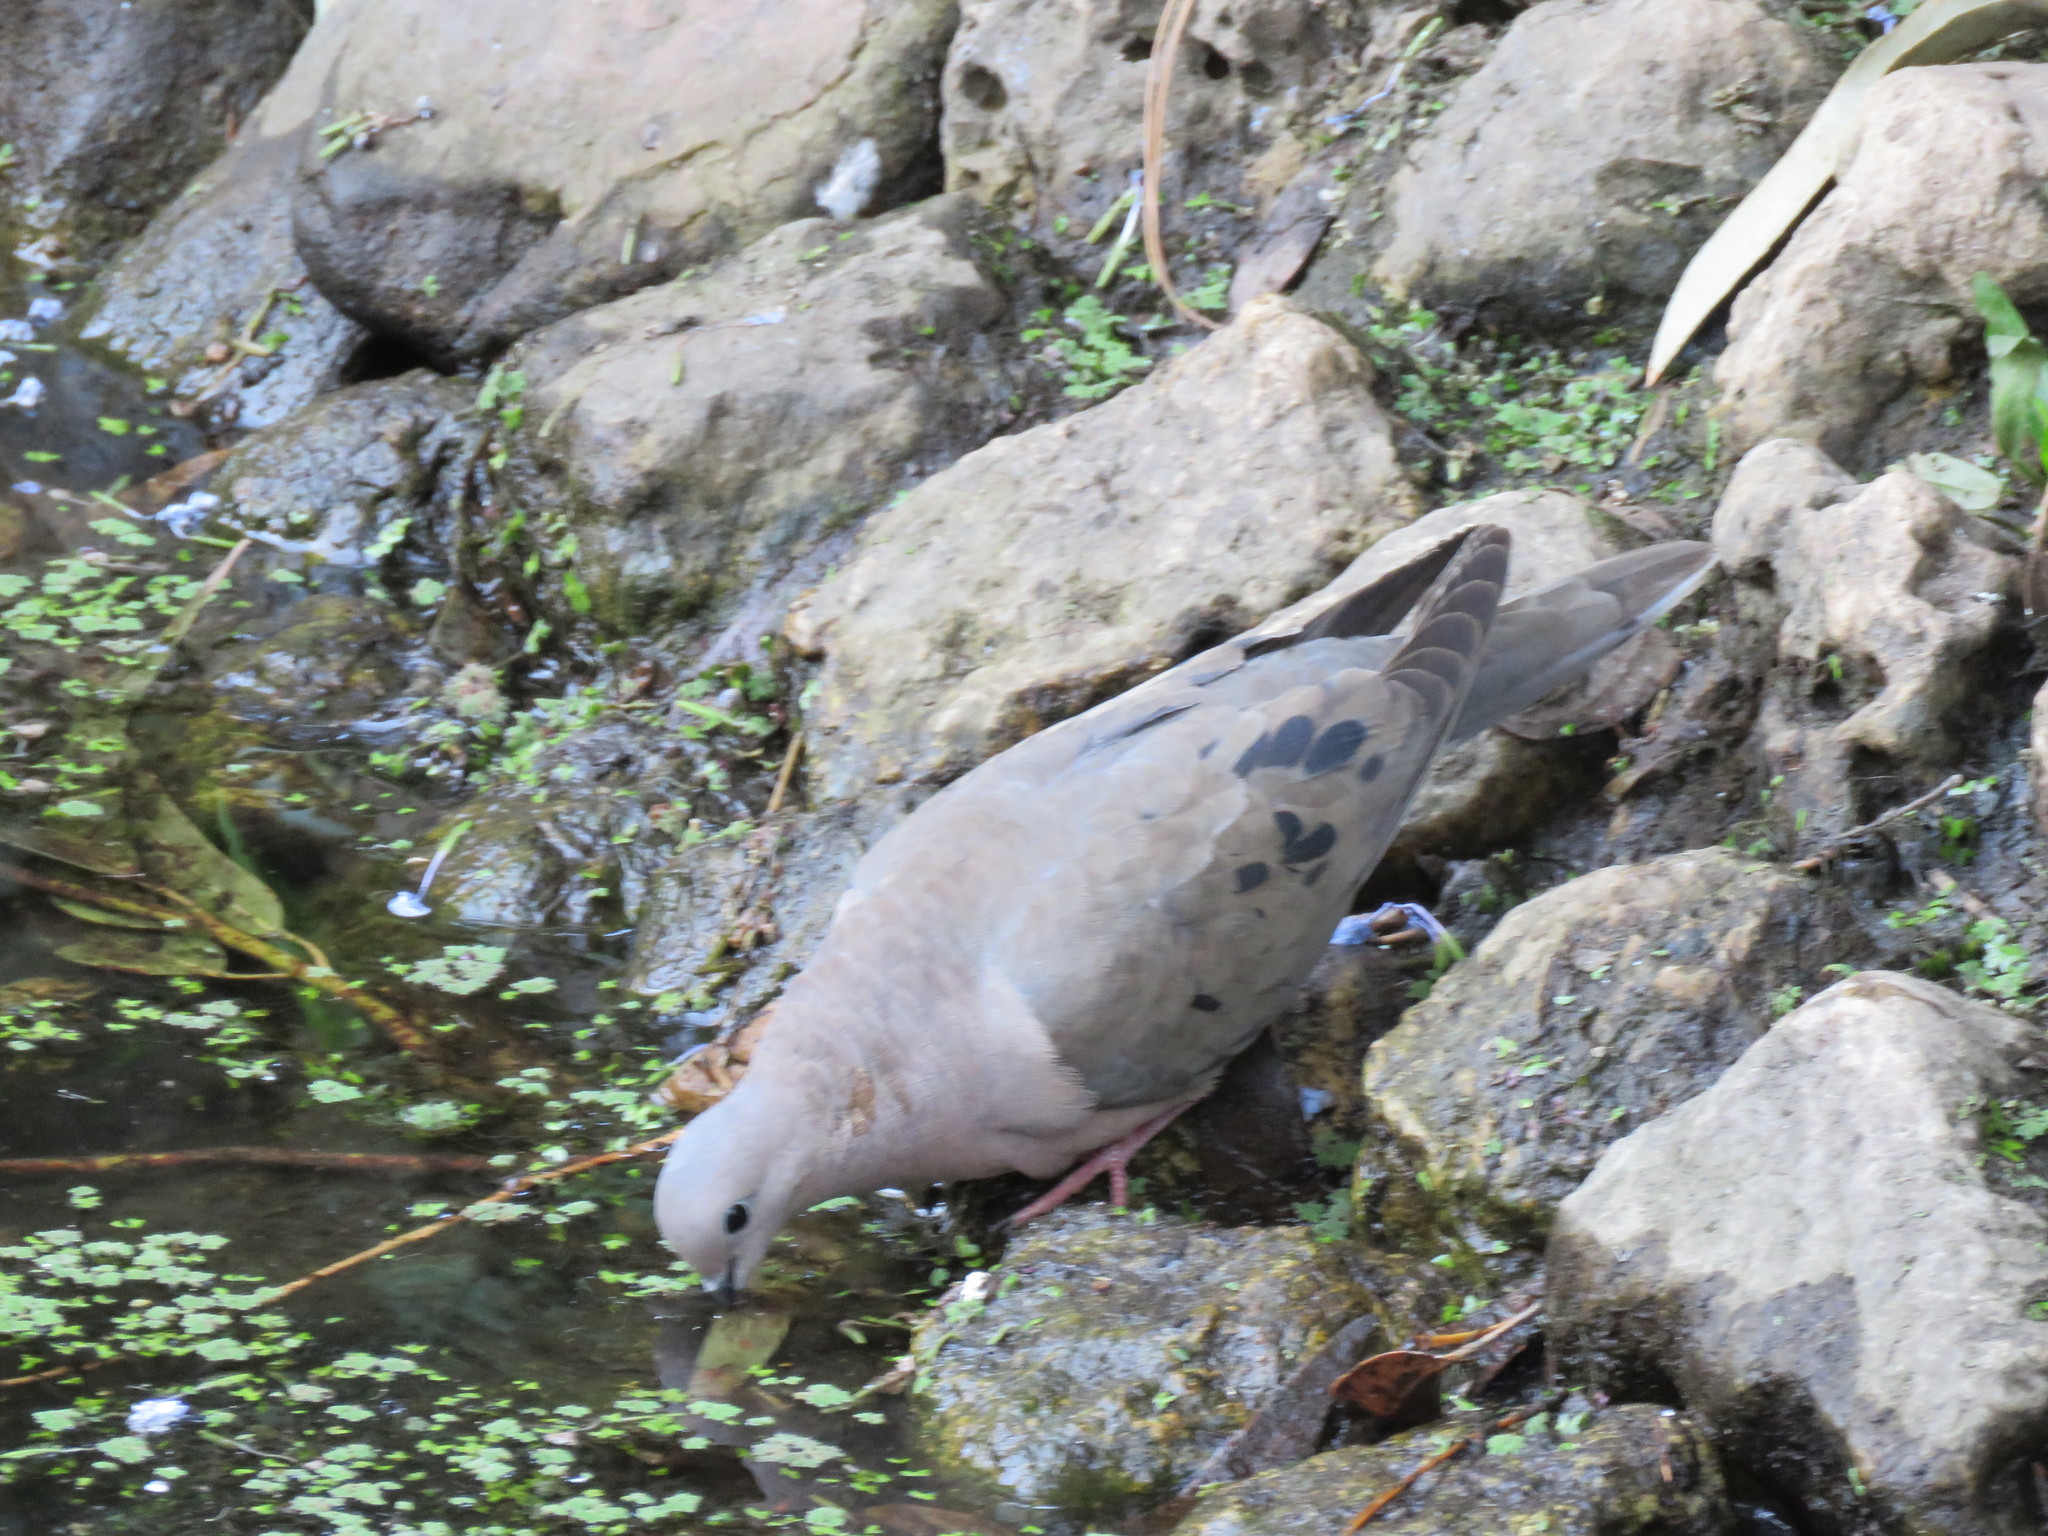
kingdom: Animalia
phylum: Chordata
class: Aves
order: Columbiformes
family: Columbidae
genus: Zenaida
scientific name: Zenaida auriculata
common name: Eared dove
